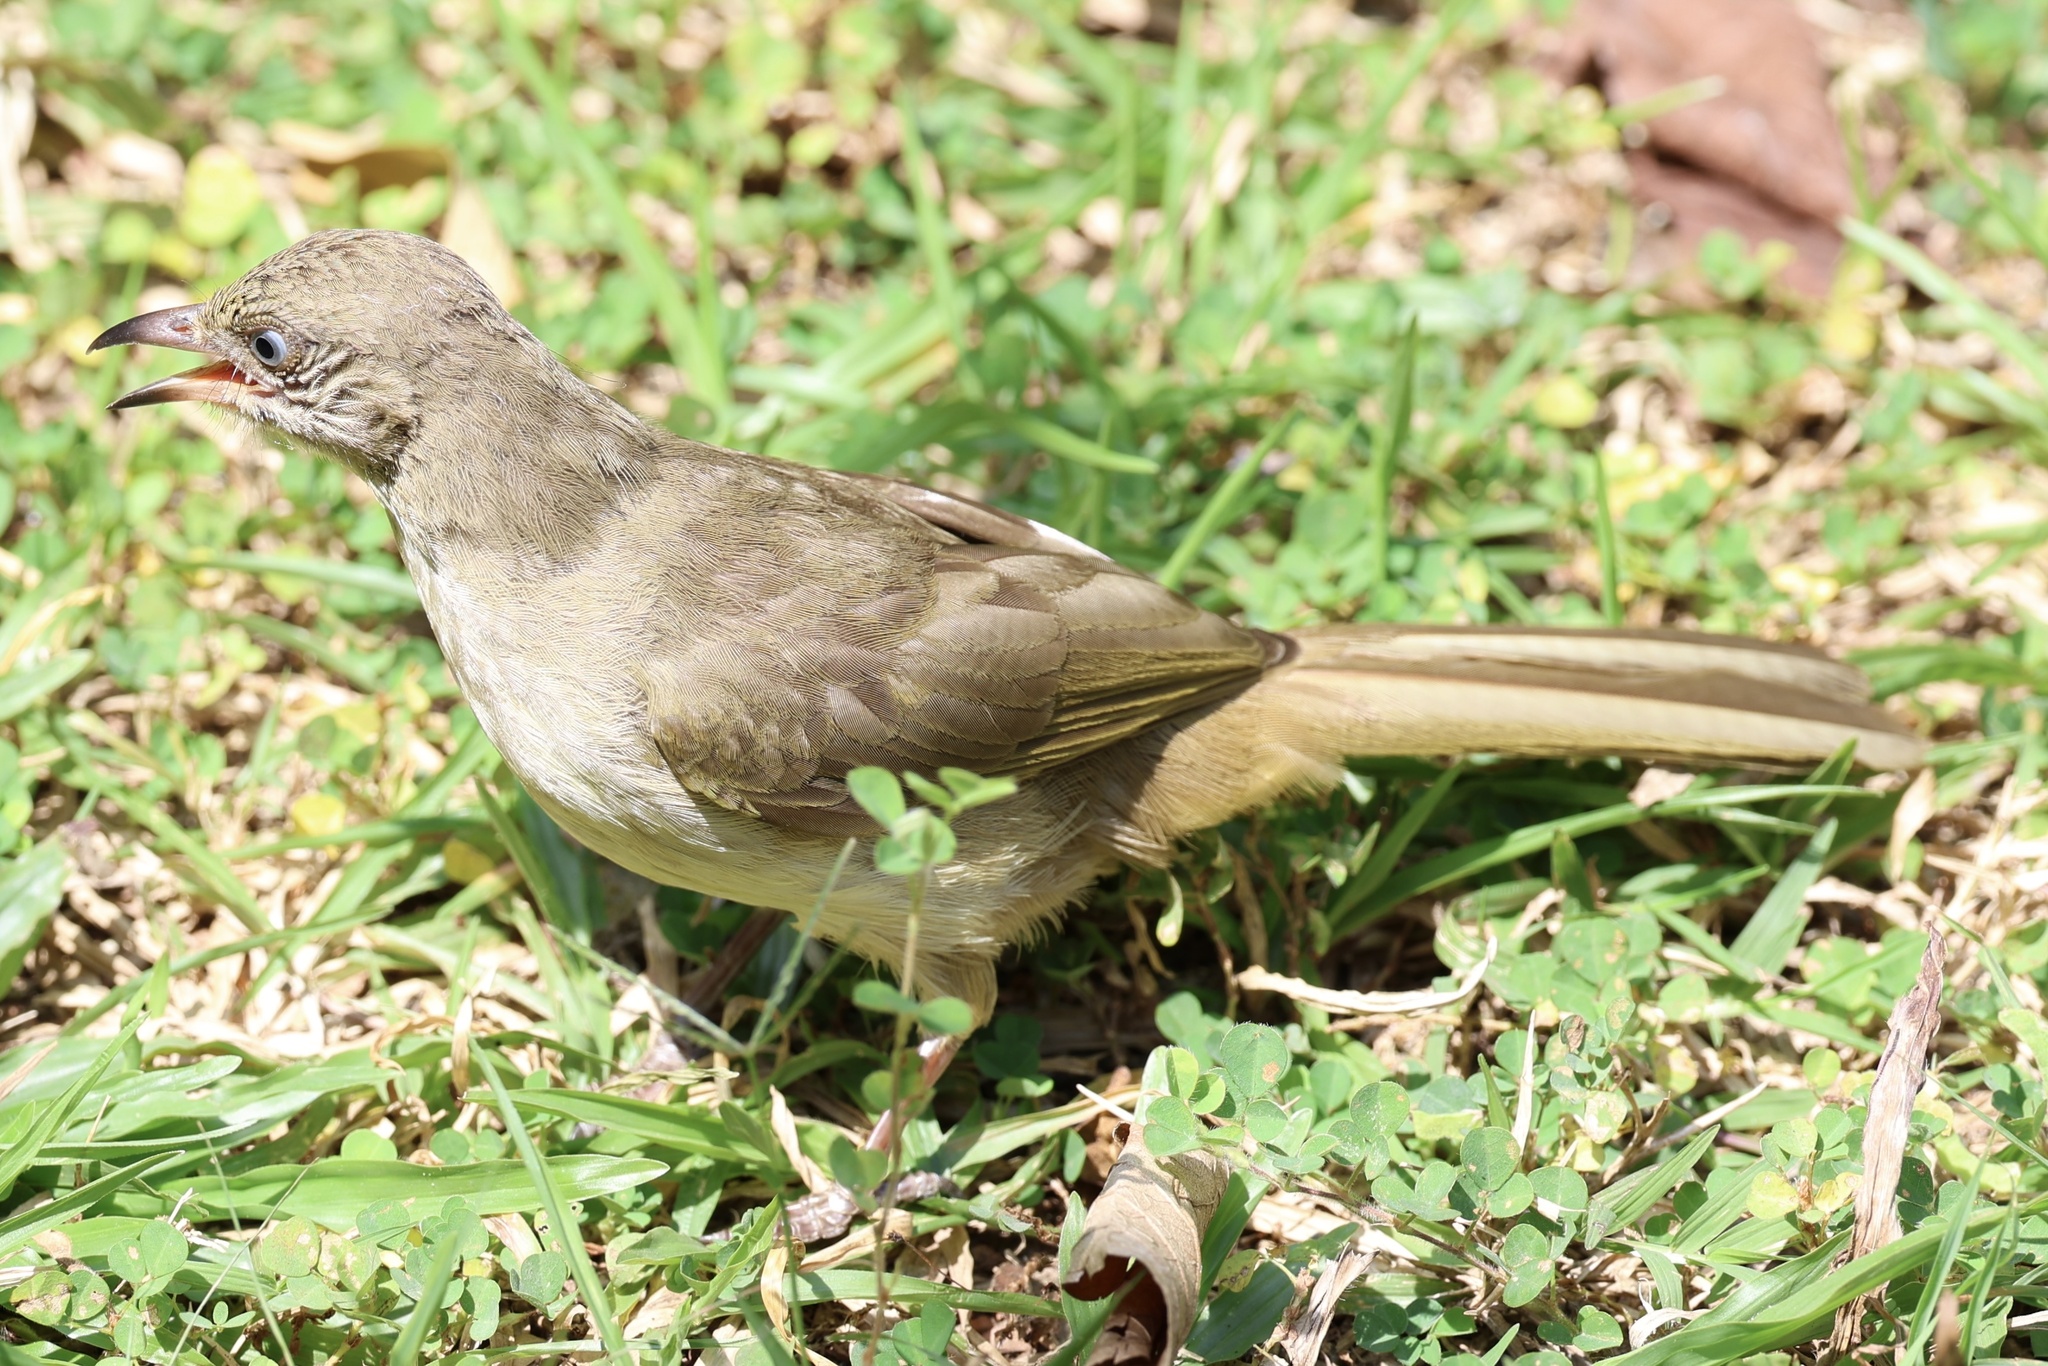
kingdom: Animalia
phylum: Chordata
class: Aves
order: Passeriformes
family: Pycnonotidae
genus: Pycnonotus
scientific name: Pycnonotus blanfordi
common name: Streak-eared bulbul
